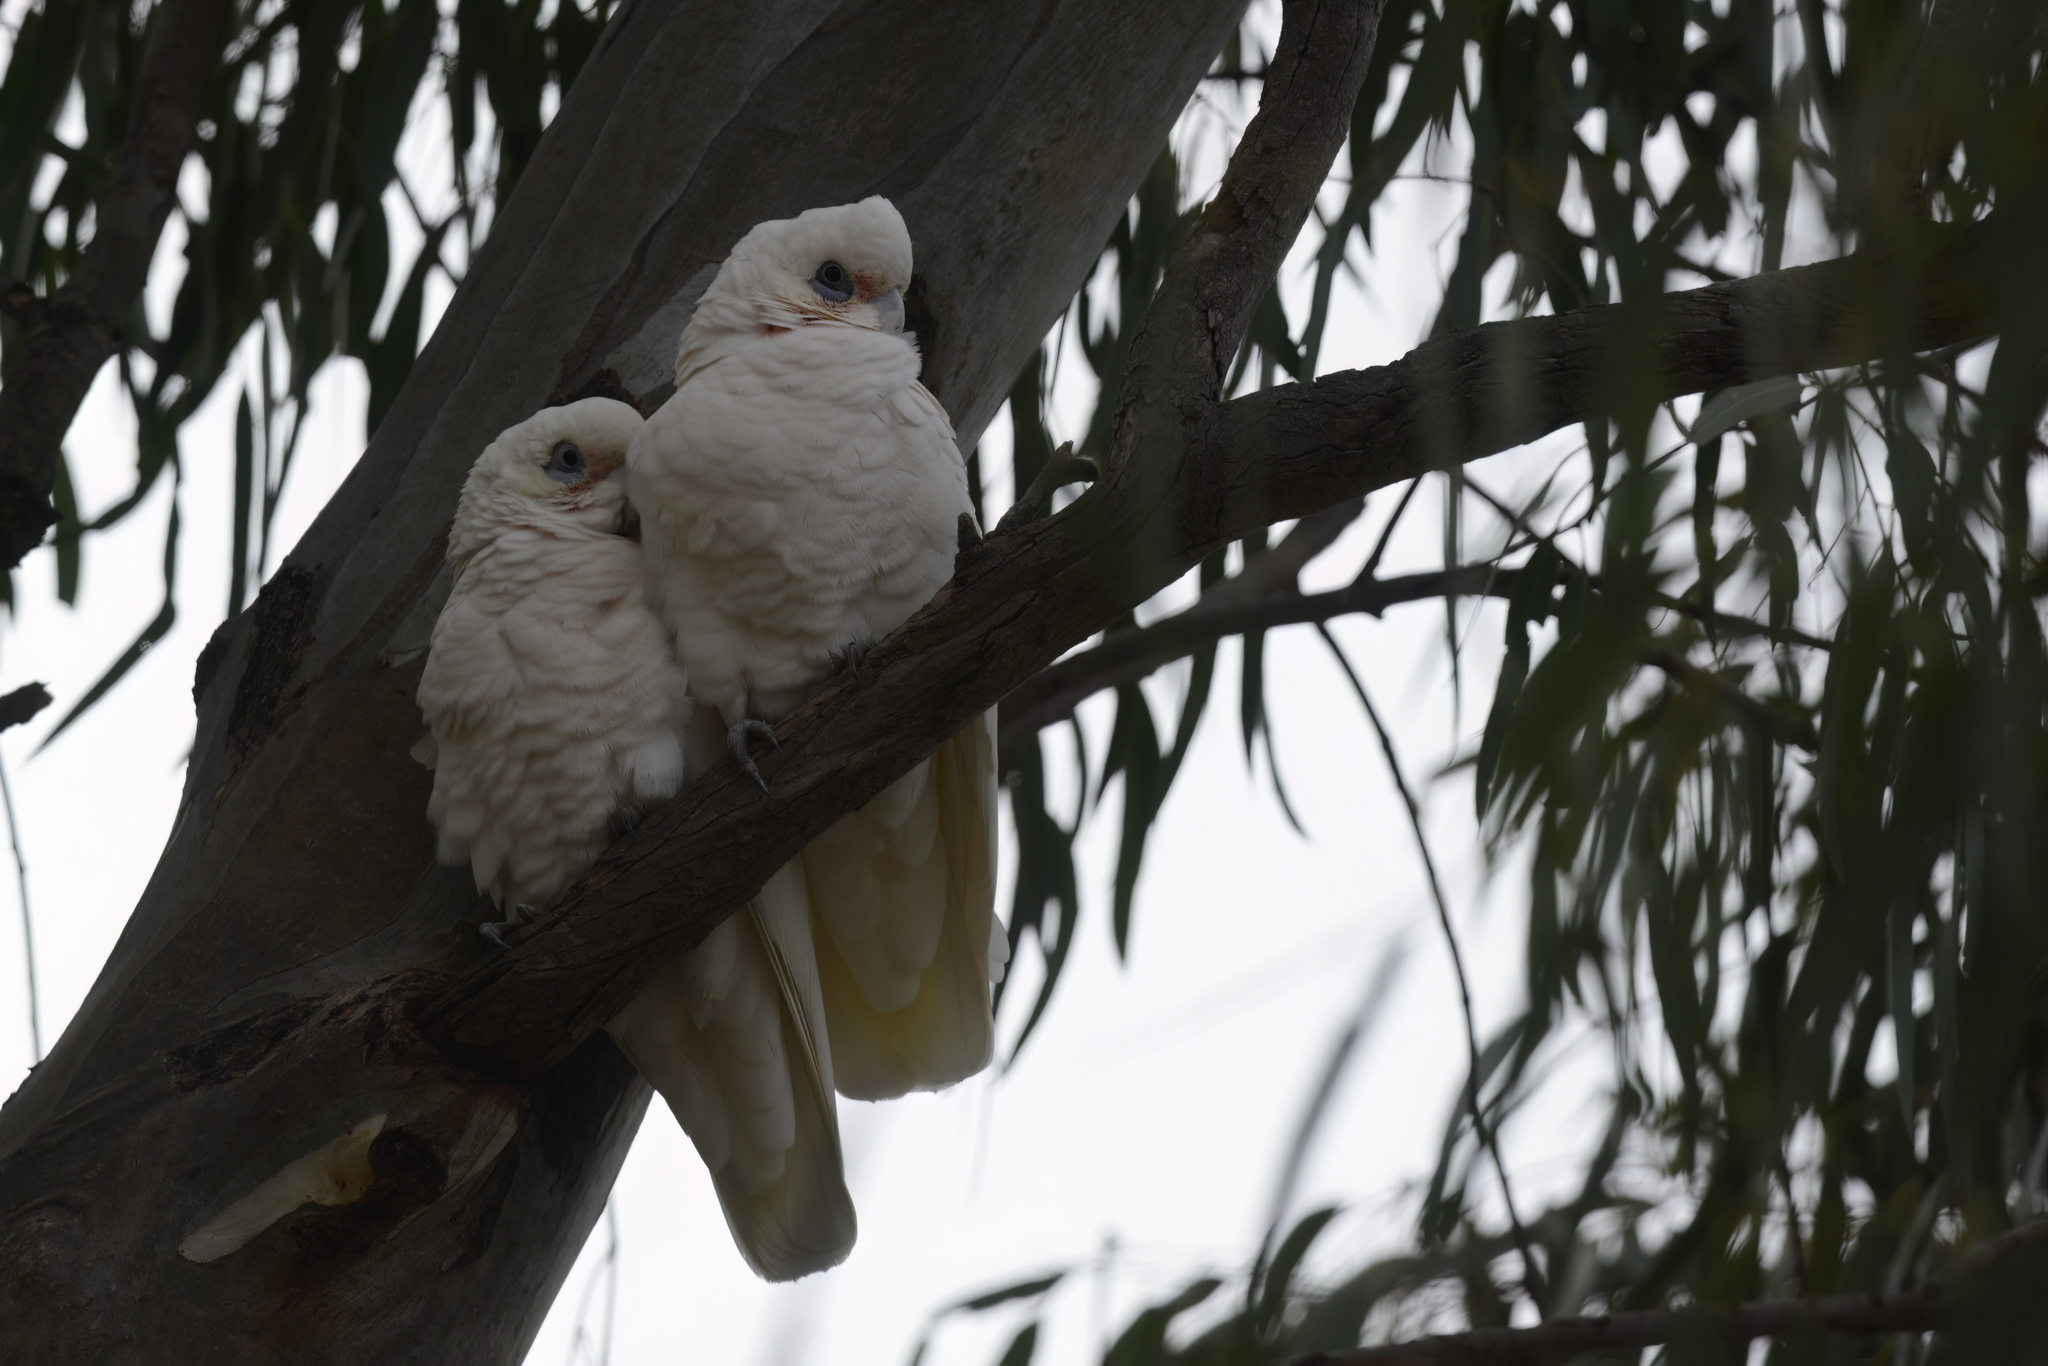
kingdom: Animalia
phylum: Chordata
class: Aves
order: Psittaciformes
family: Psittacidae
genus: Cacatua
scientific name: Cacatua sanguinea
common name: Little corella
